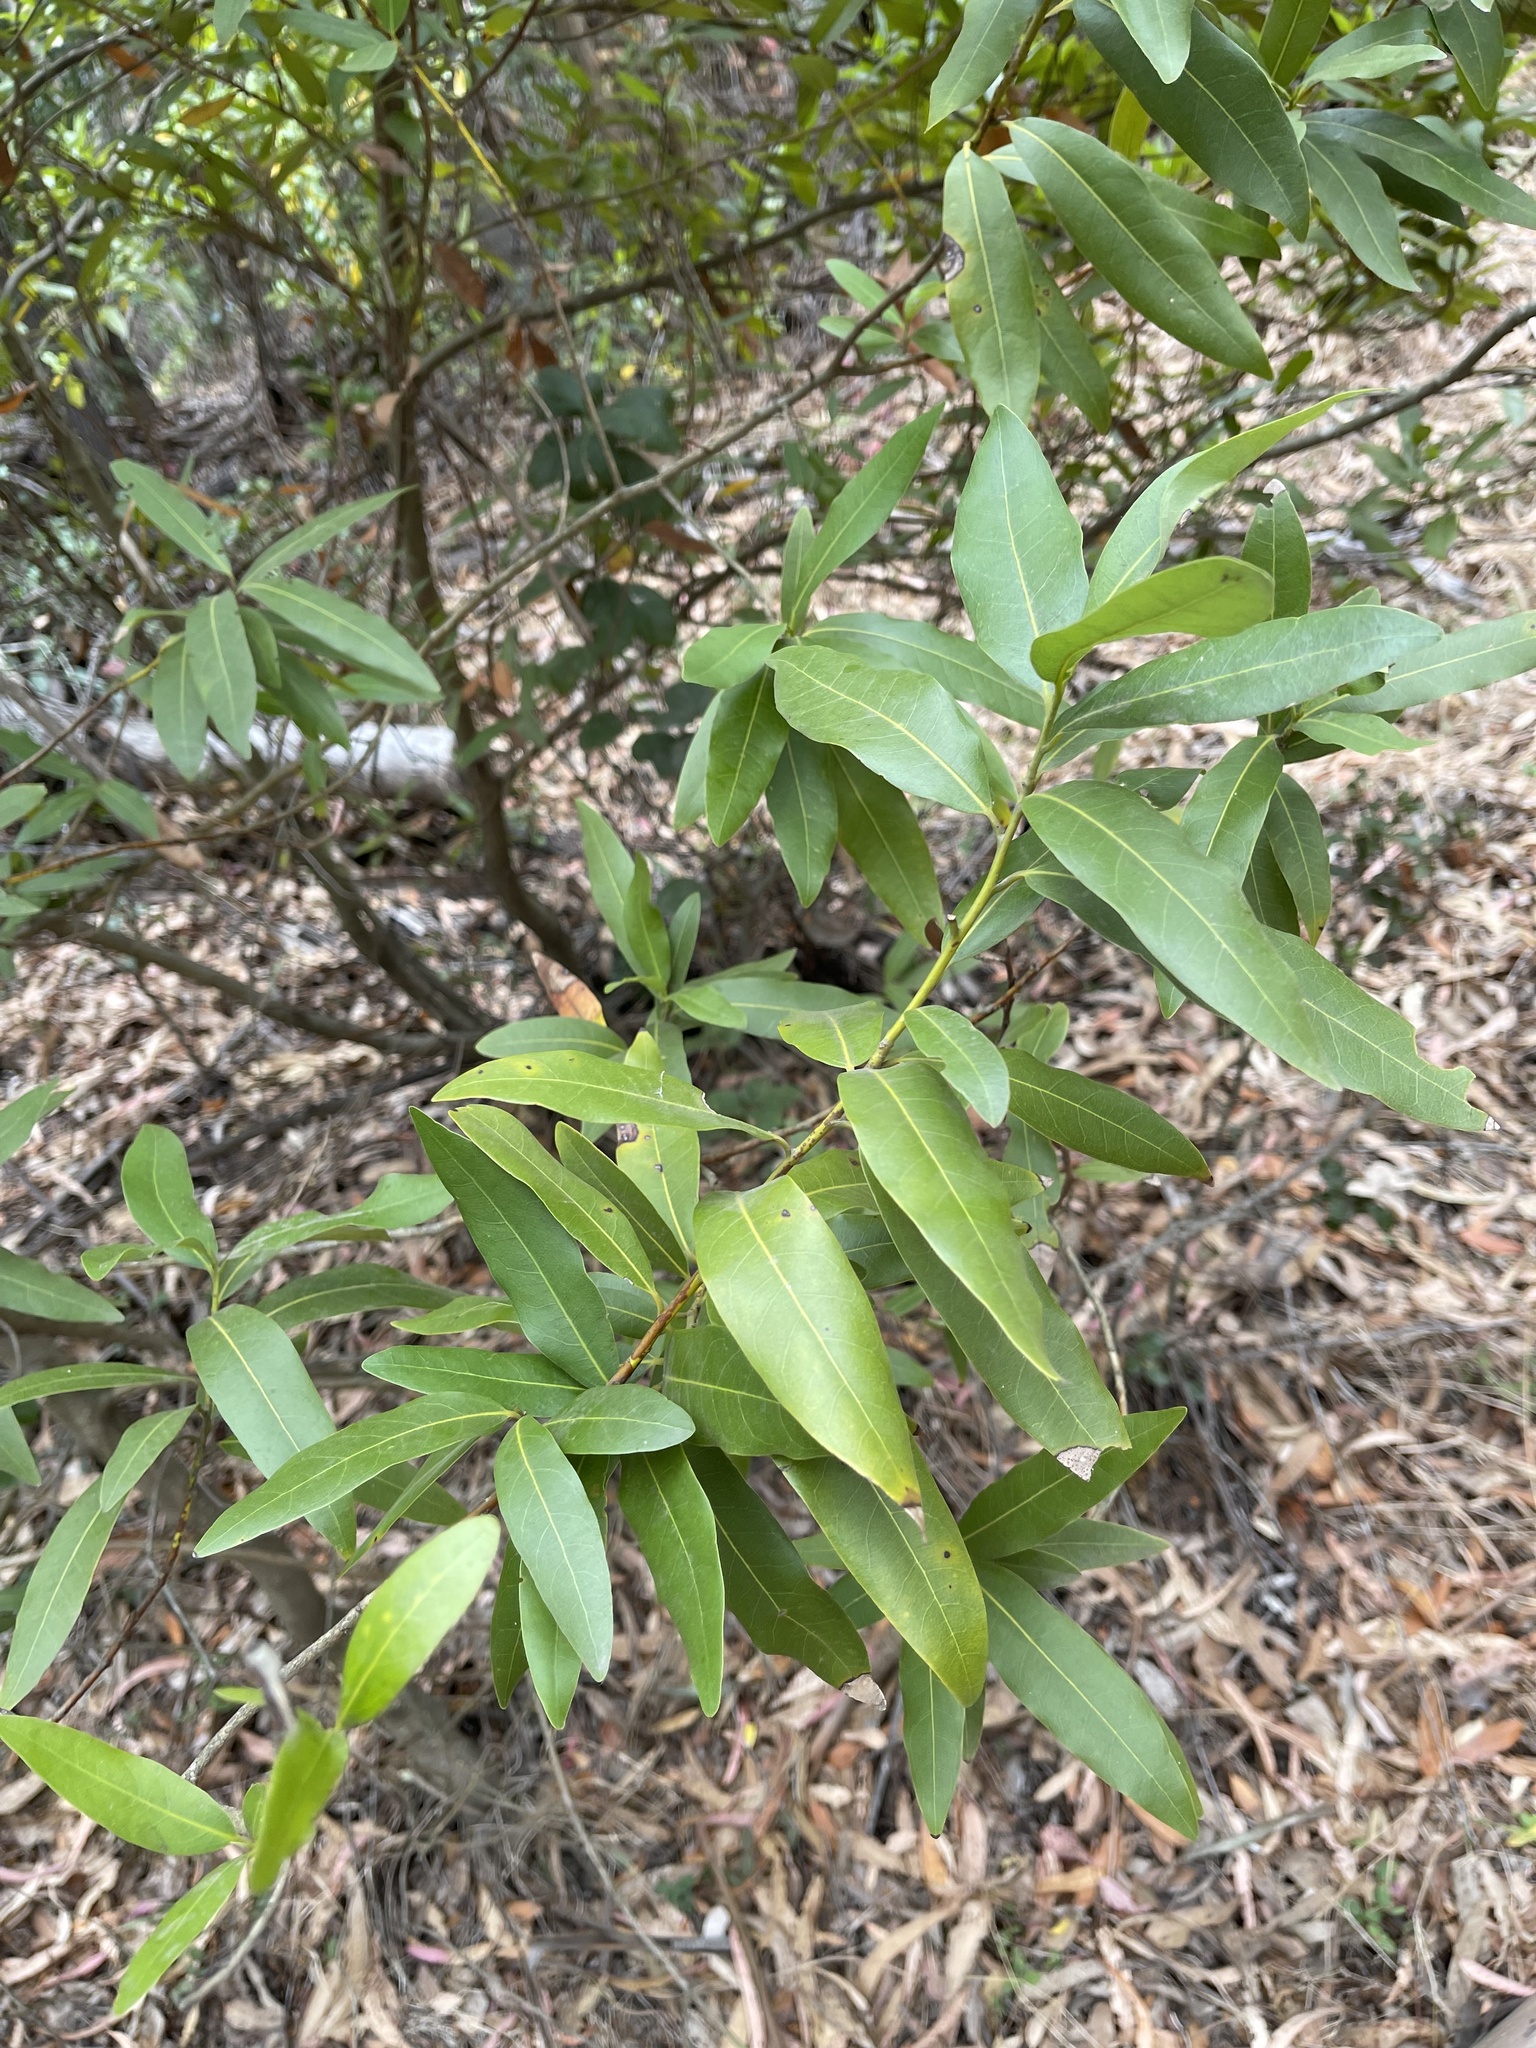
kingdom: Plantae
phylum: Tracheophyta
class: Magnoliopsida
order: Laurales
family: Lauraceae
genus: Umbellularia
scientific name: Umbellularia californica
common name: California bay
